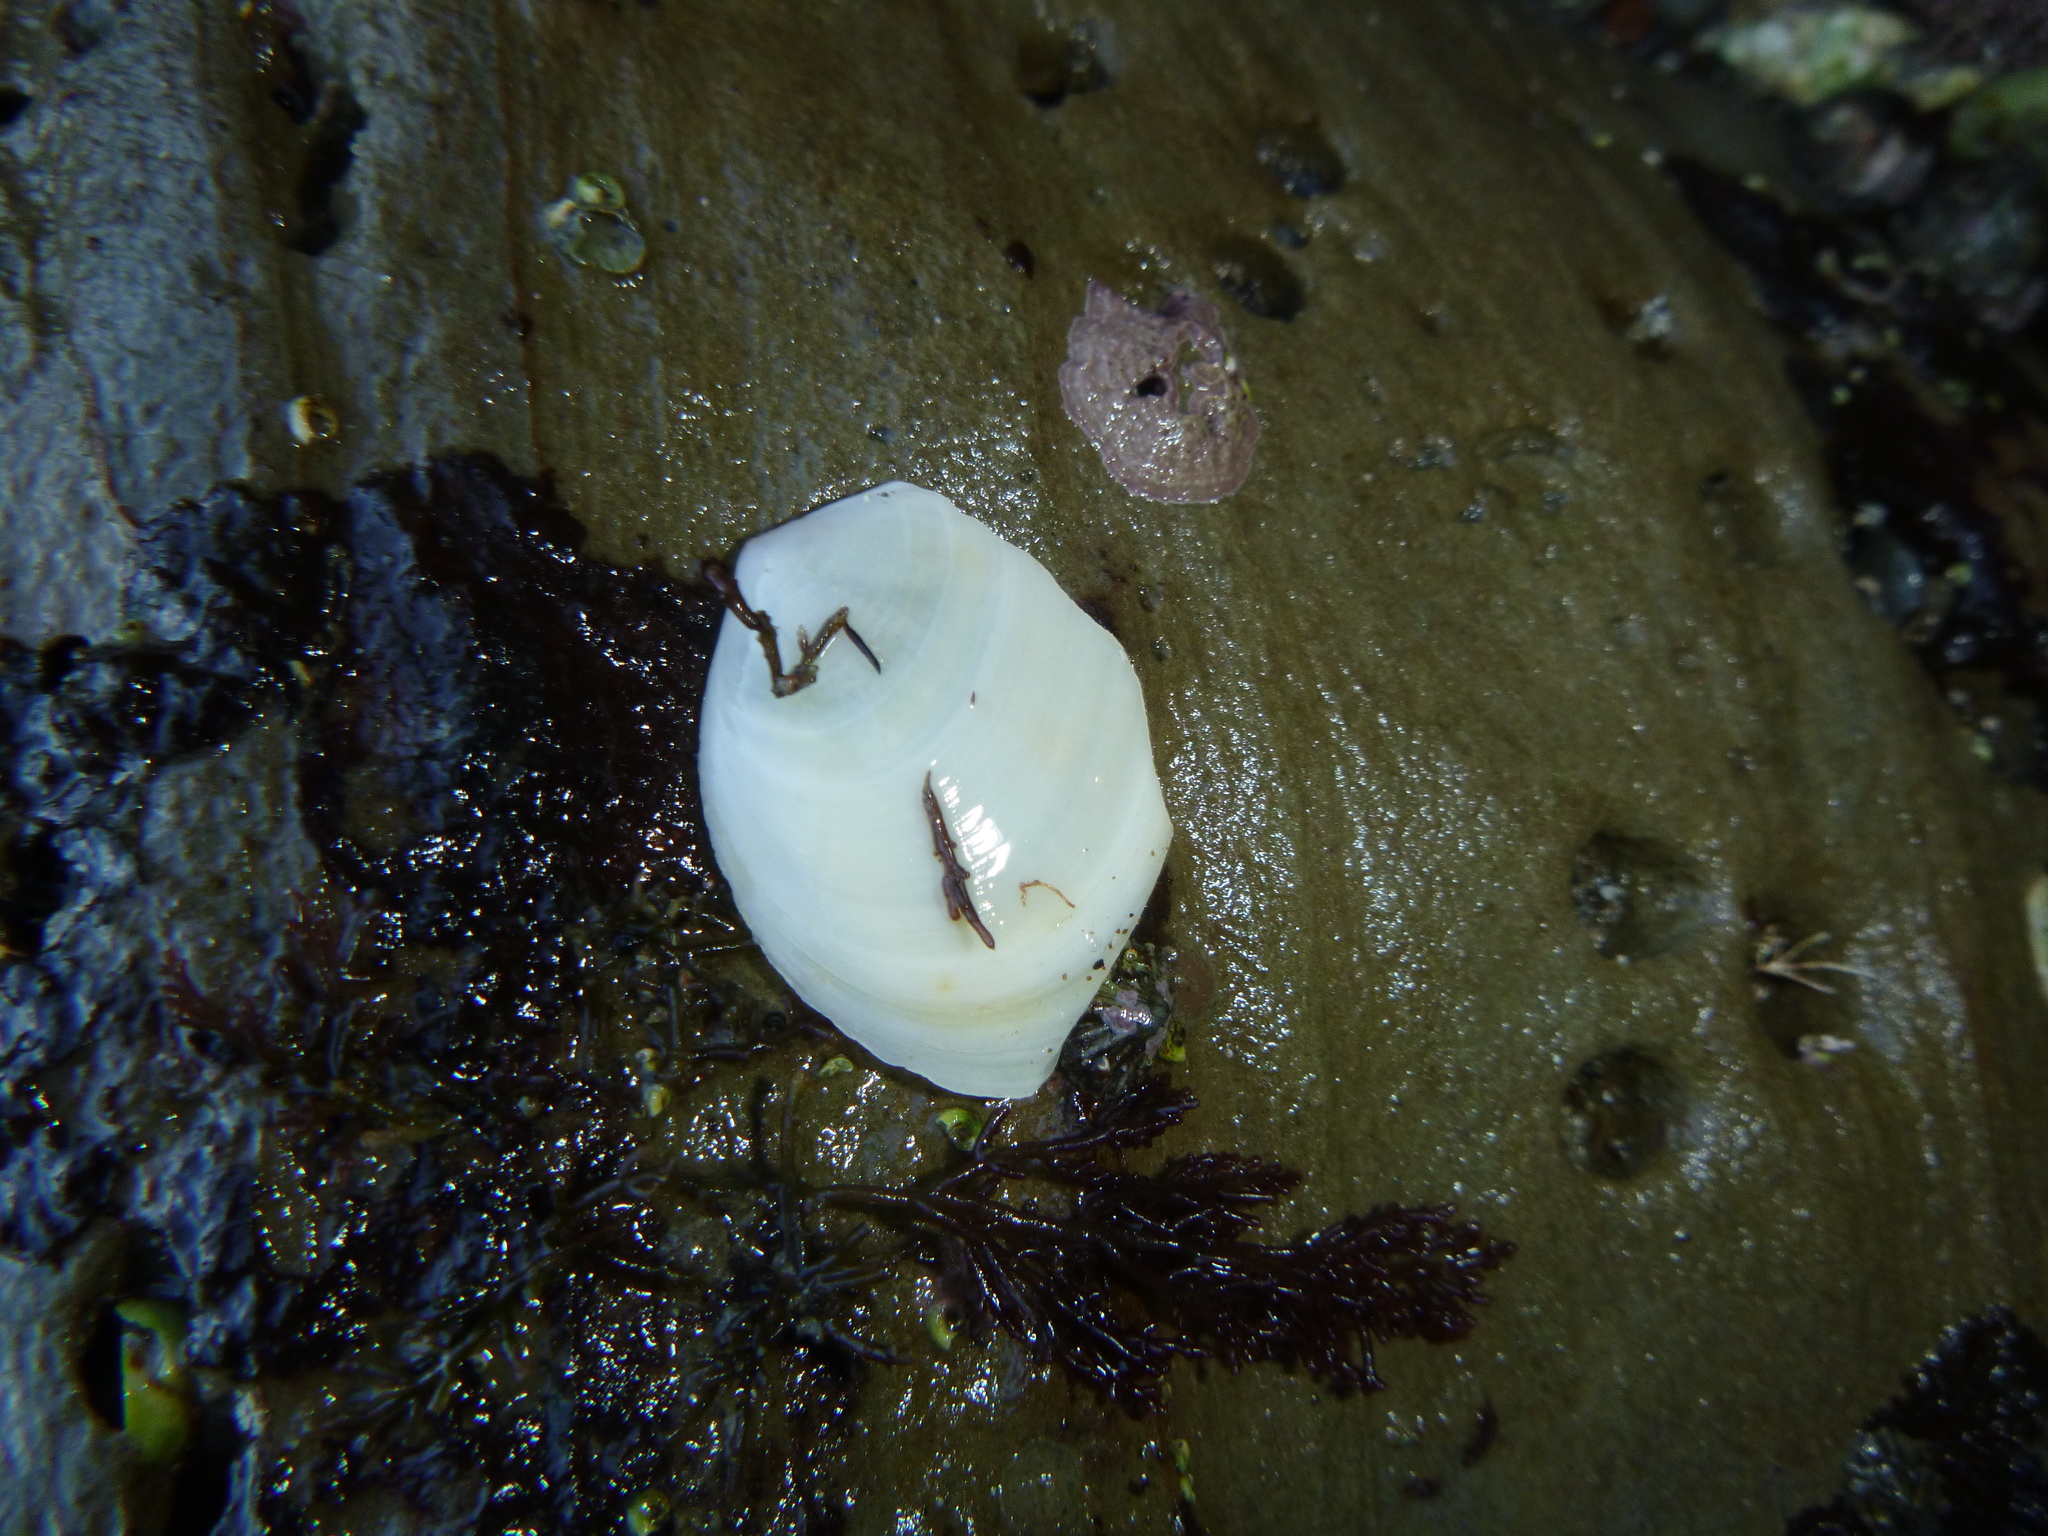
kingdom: Animalia
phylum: Mollusca
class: Bivalvia
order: Cardiida
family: Tellinidae
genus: Macomona
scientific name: Macomona liliana
